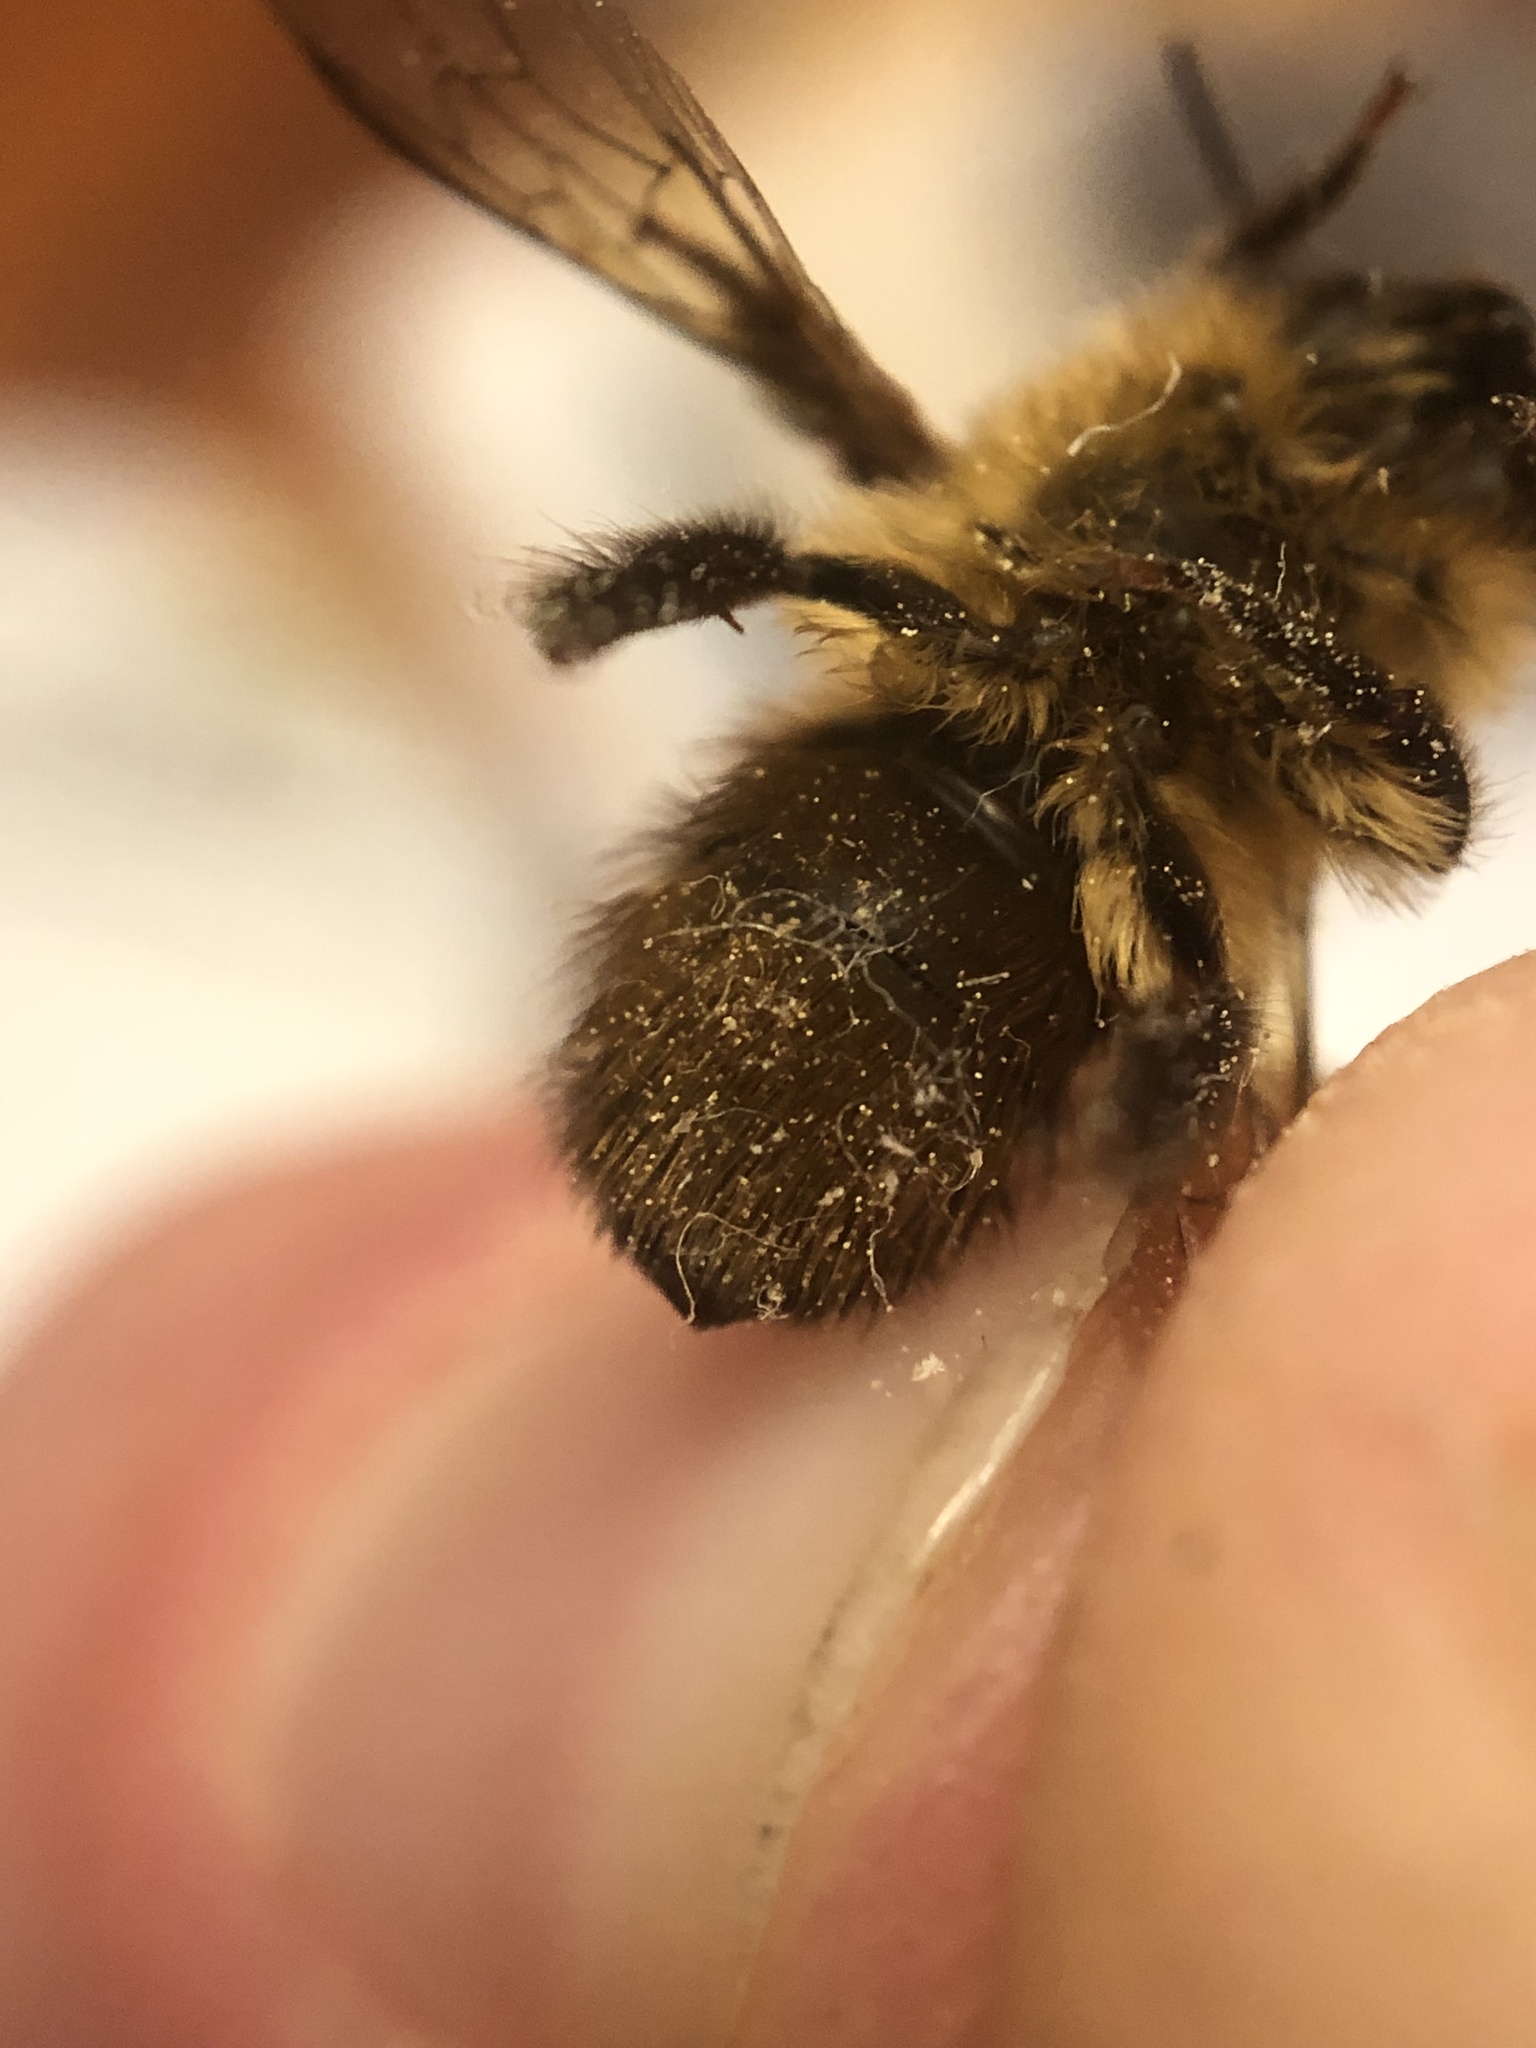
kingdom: Animalia
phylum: Arthropoda
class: Insecta
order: Hymenoptera
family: Megachilidae
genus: Osmia
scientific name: Osmia taurus
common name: Taurus mason bee
